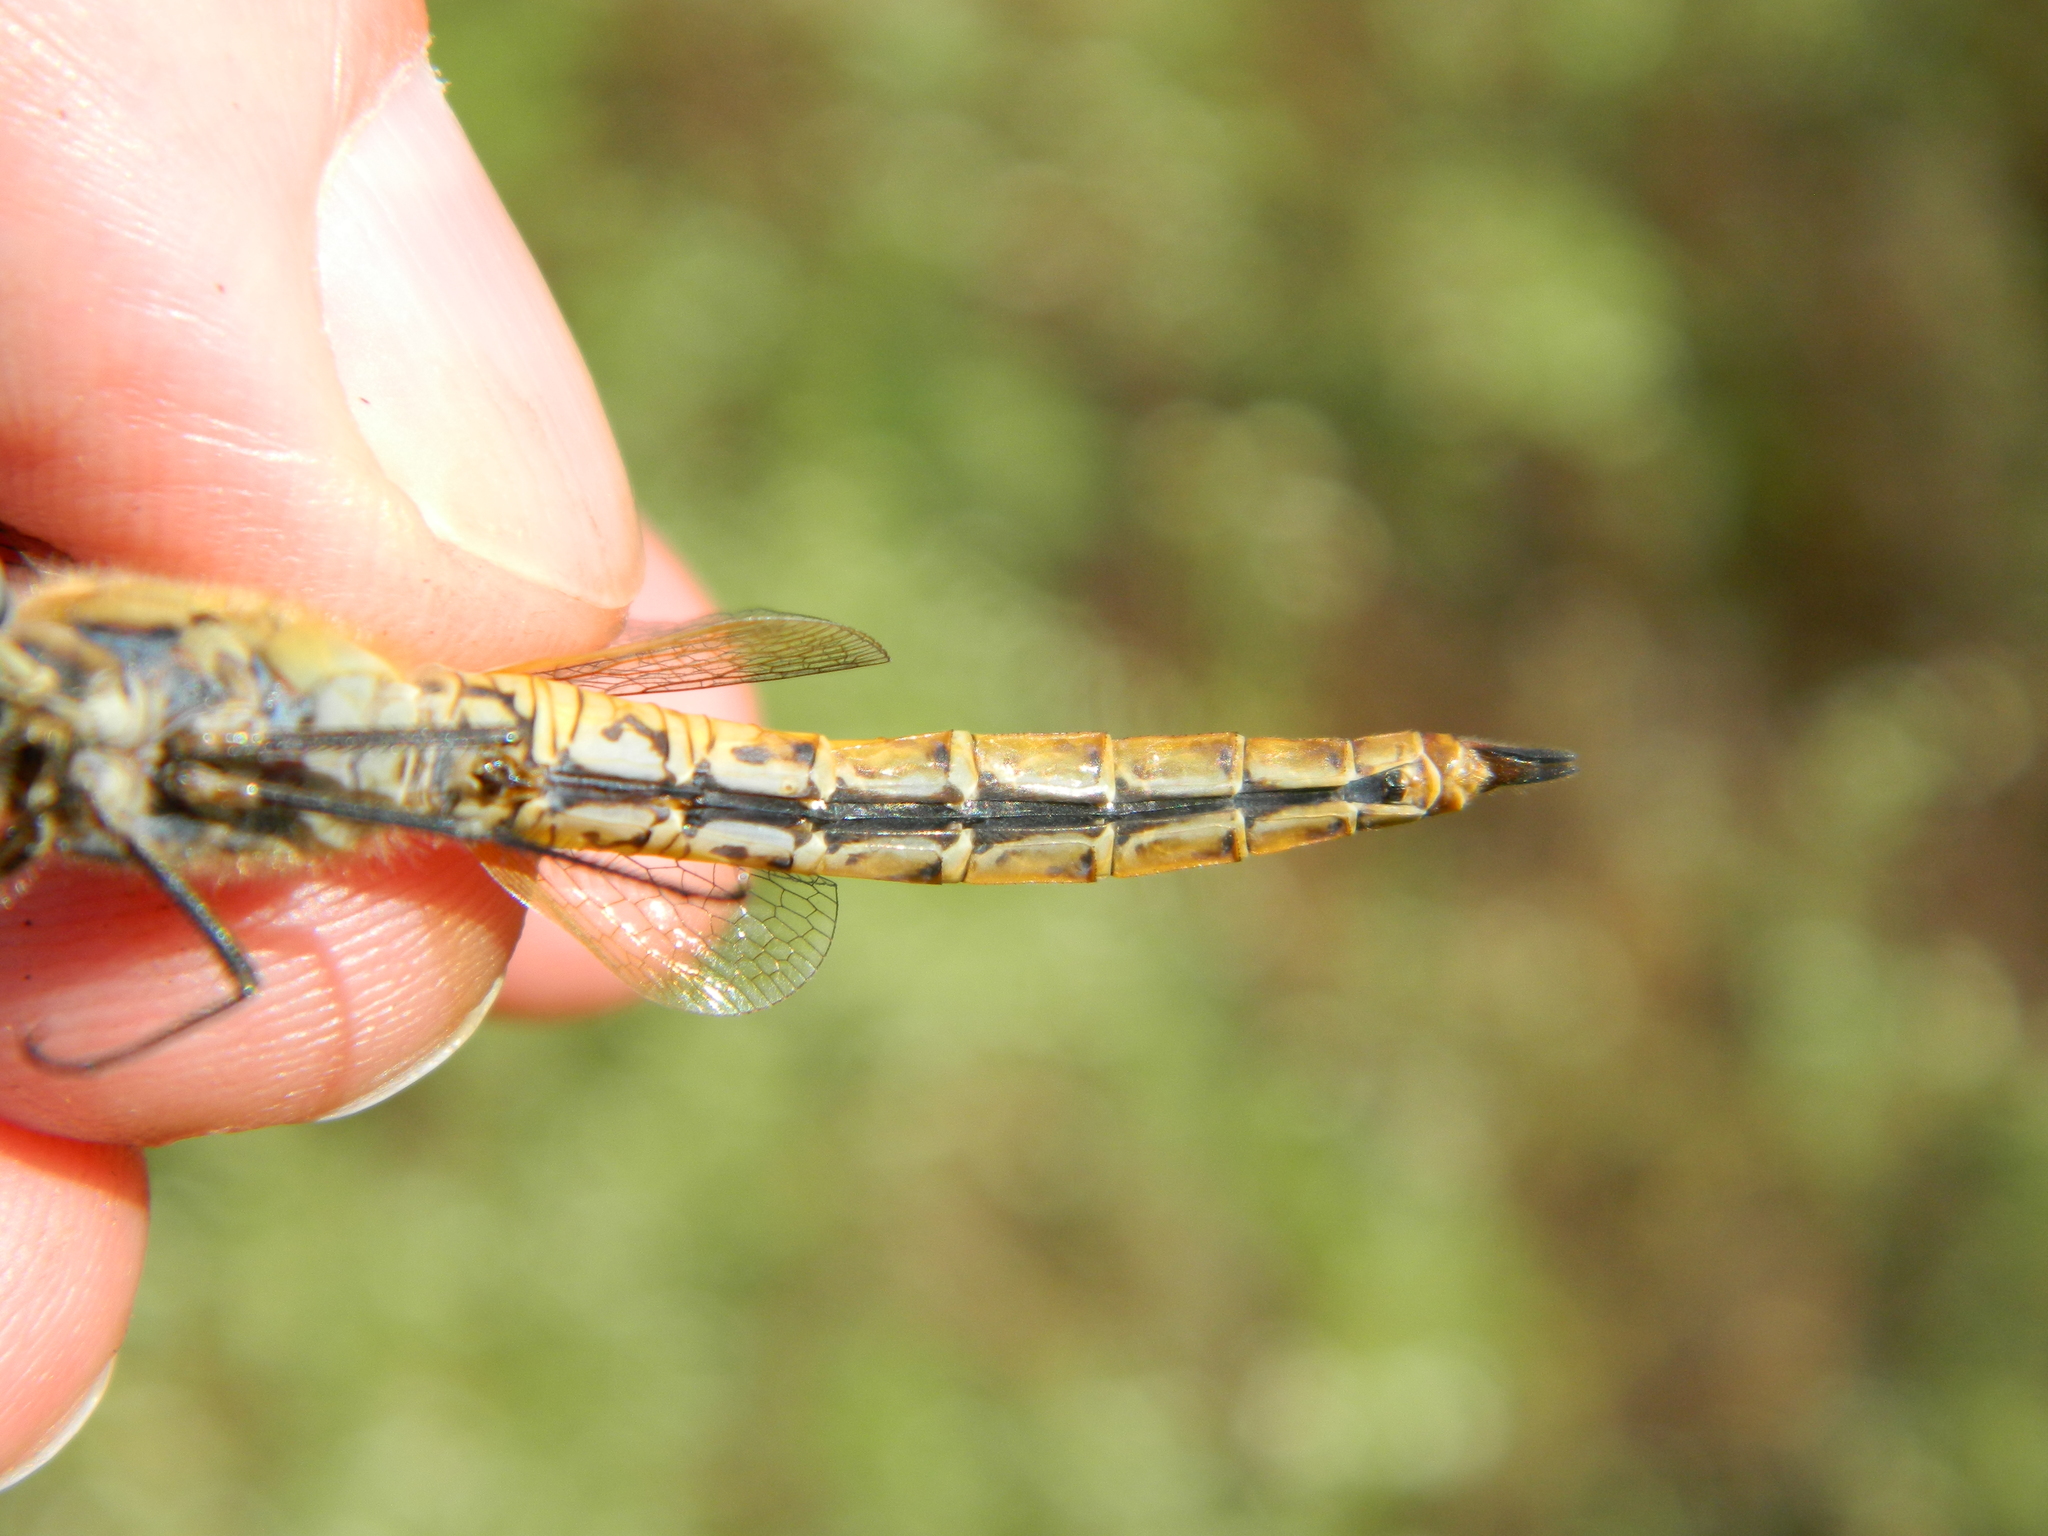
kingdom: Animalia
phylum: Arthropoda
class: Insecta
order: Odonata
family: Libellulidae
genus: Pantala
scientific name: Pantala flavescens
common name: Wandering glider
